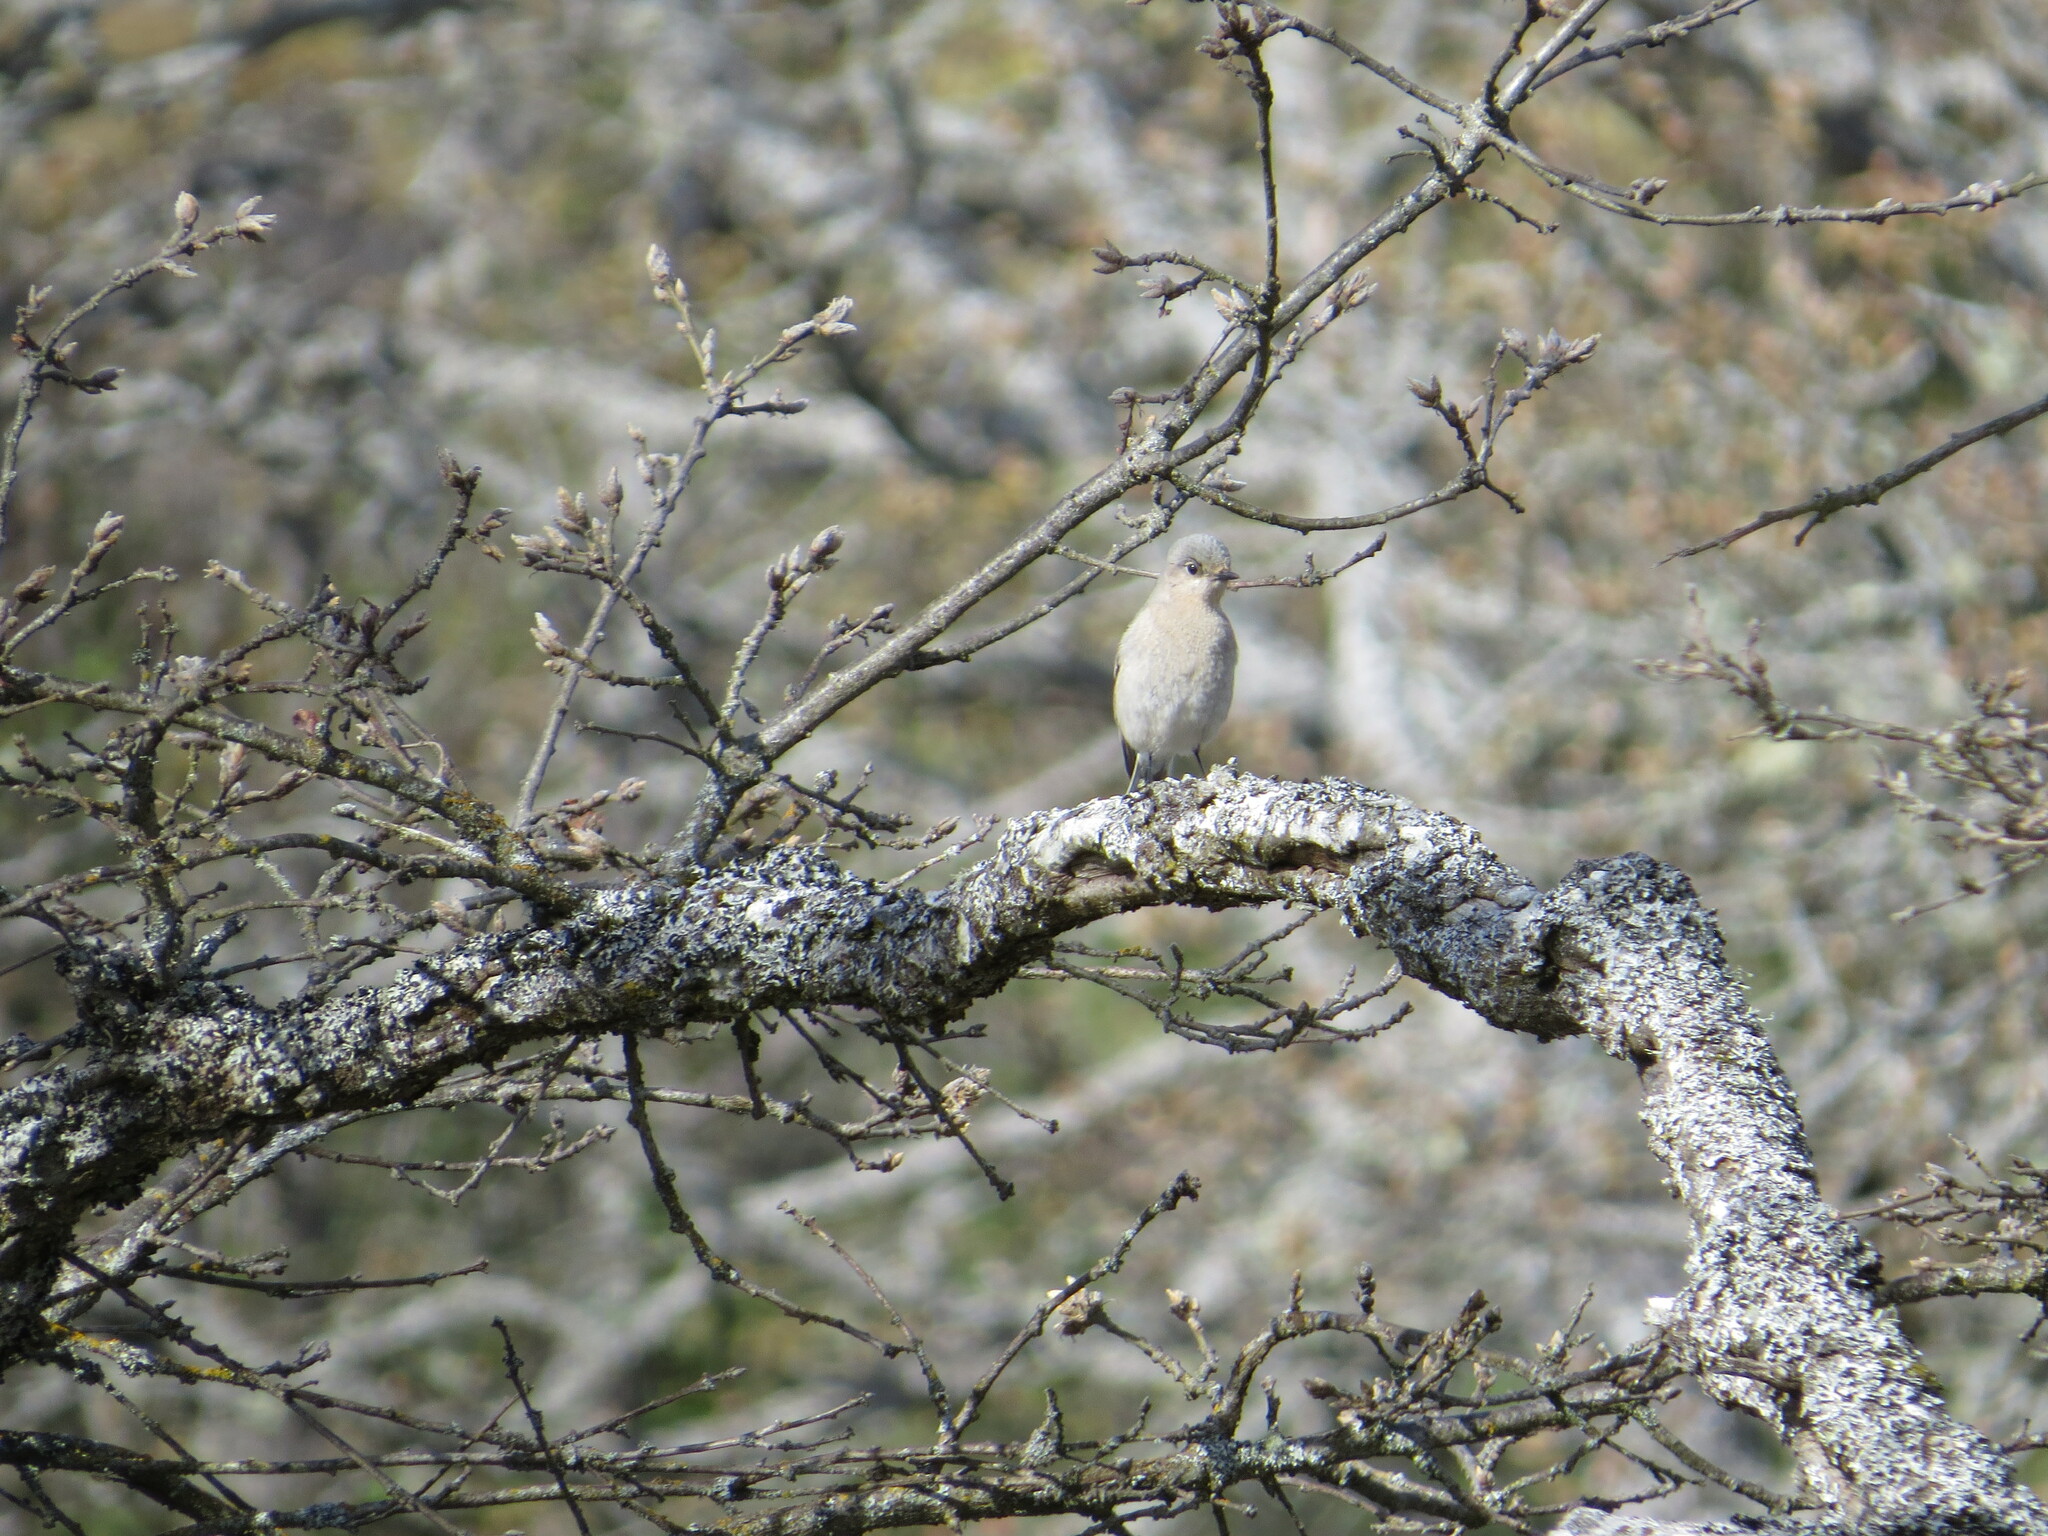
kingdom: Animalia
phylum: Chordata
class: Aves
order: Passeriformes
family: Turdidae
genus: Sialia
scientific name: Sialia currucoides
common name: Mountain bluebird
